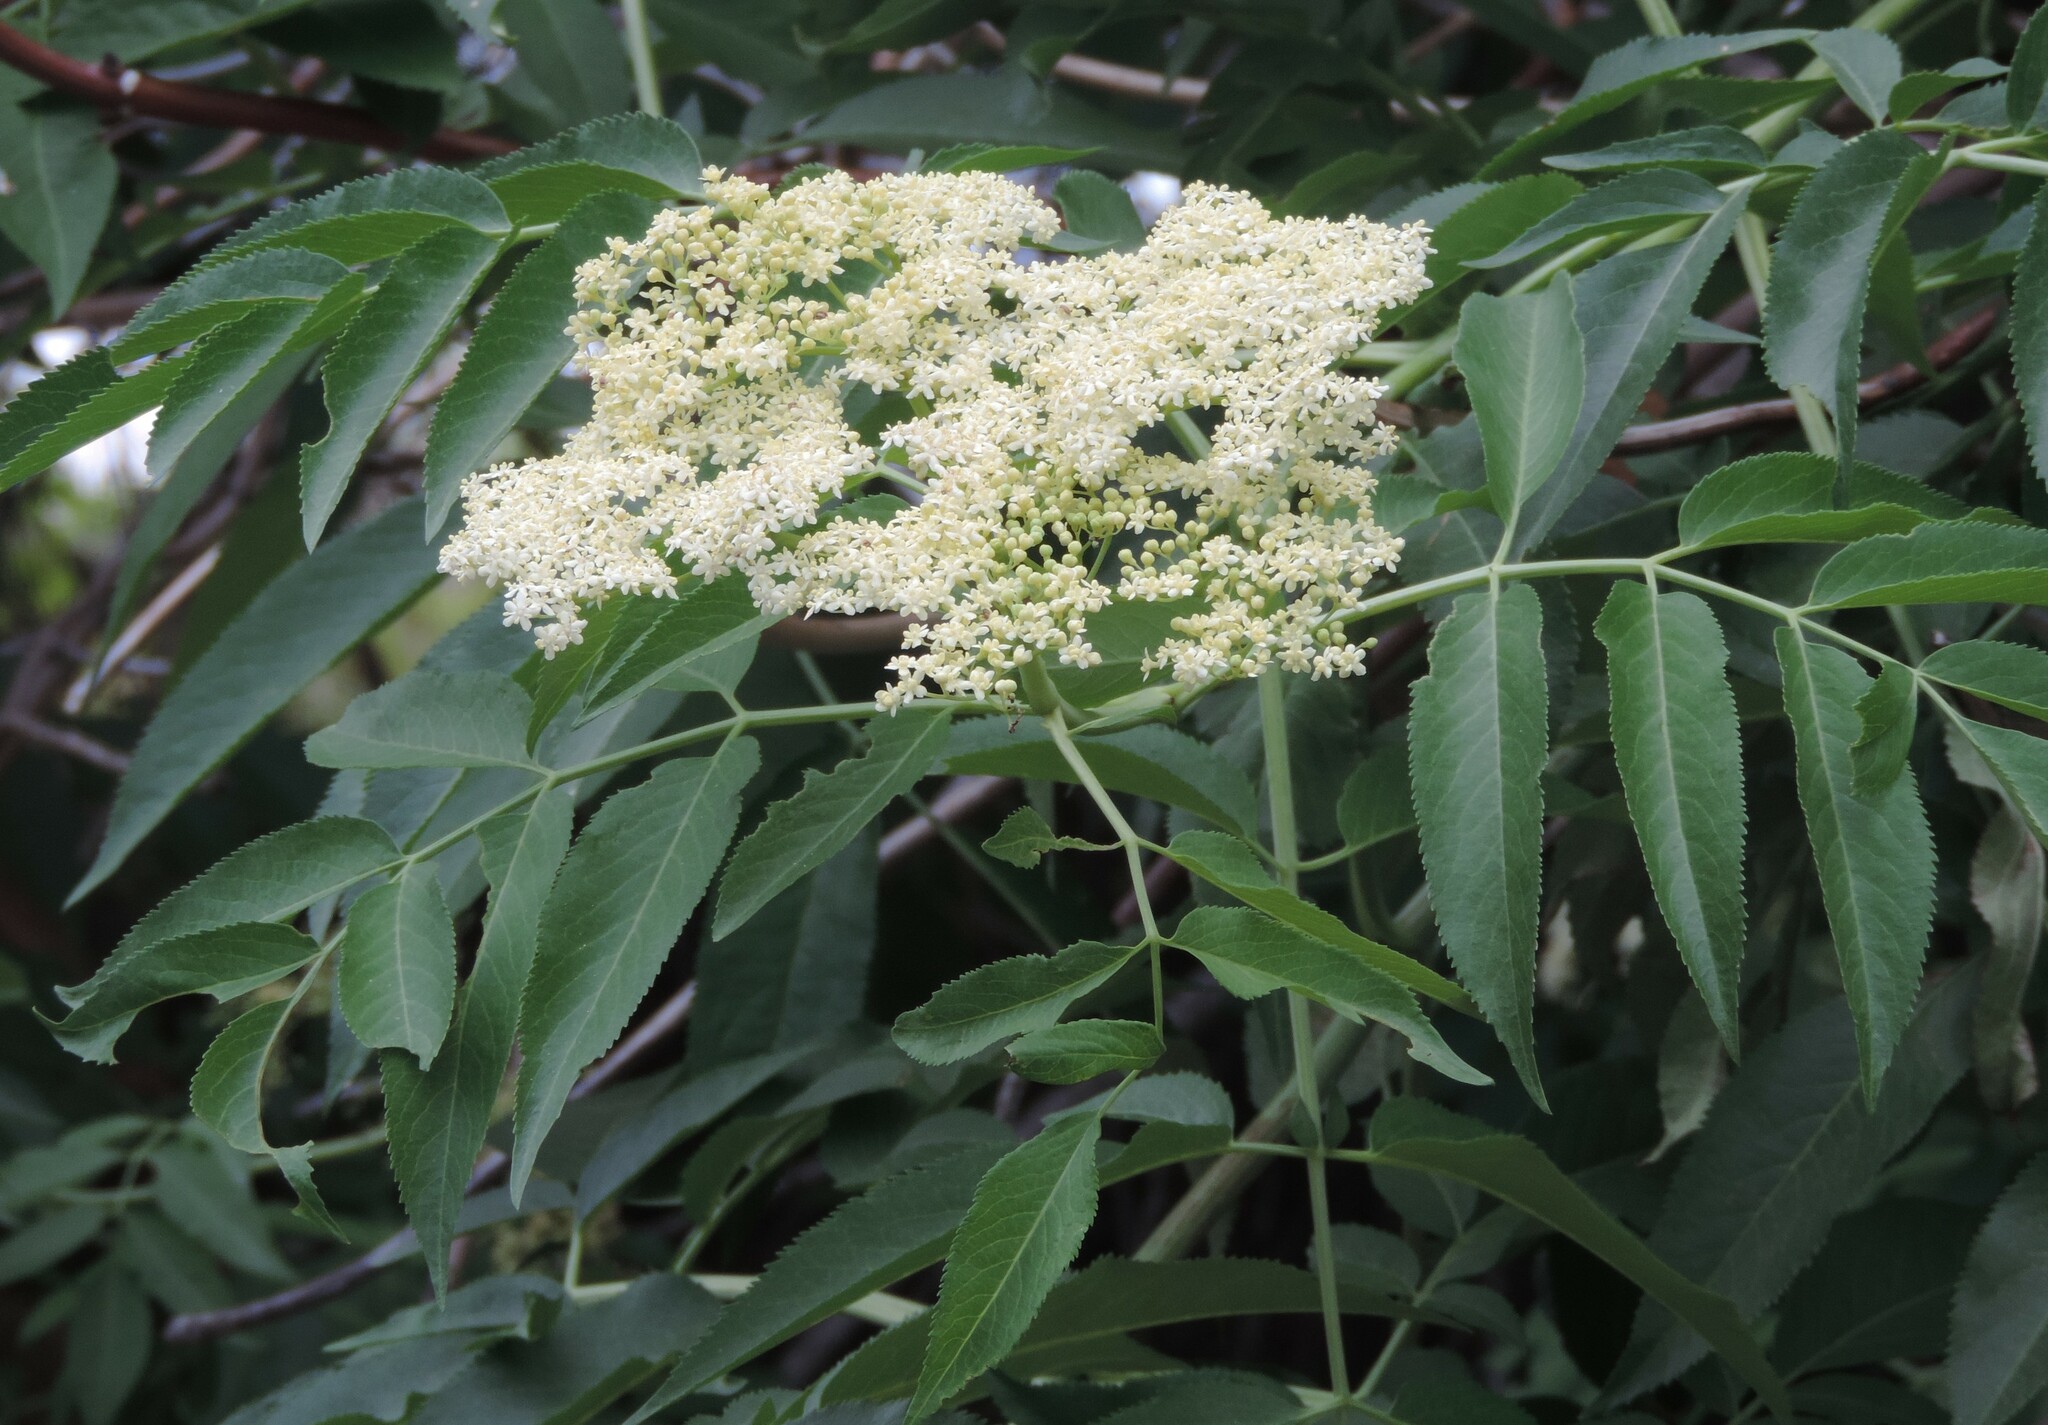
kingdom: Plantae
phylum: Tracheophyta
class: Magnoliopsida
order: Dipsacales
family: Viburnaceae
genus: Sambucus
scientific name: Sambucus cerulea
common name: Blue elder
